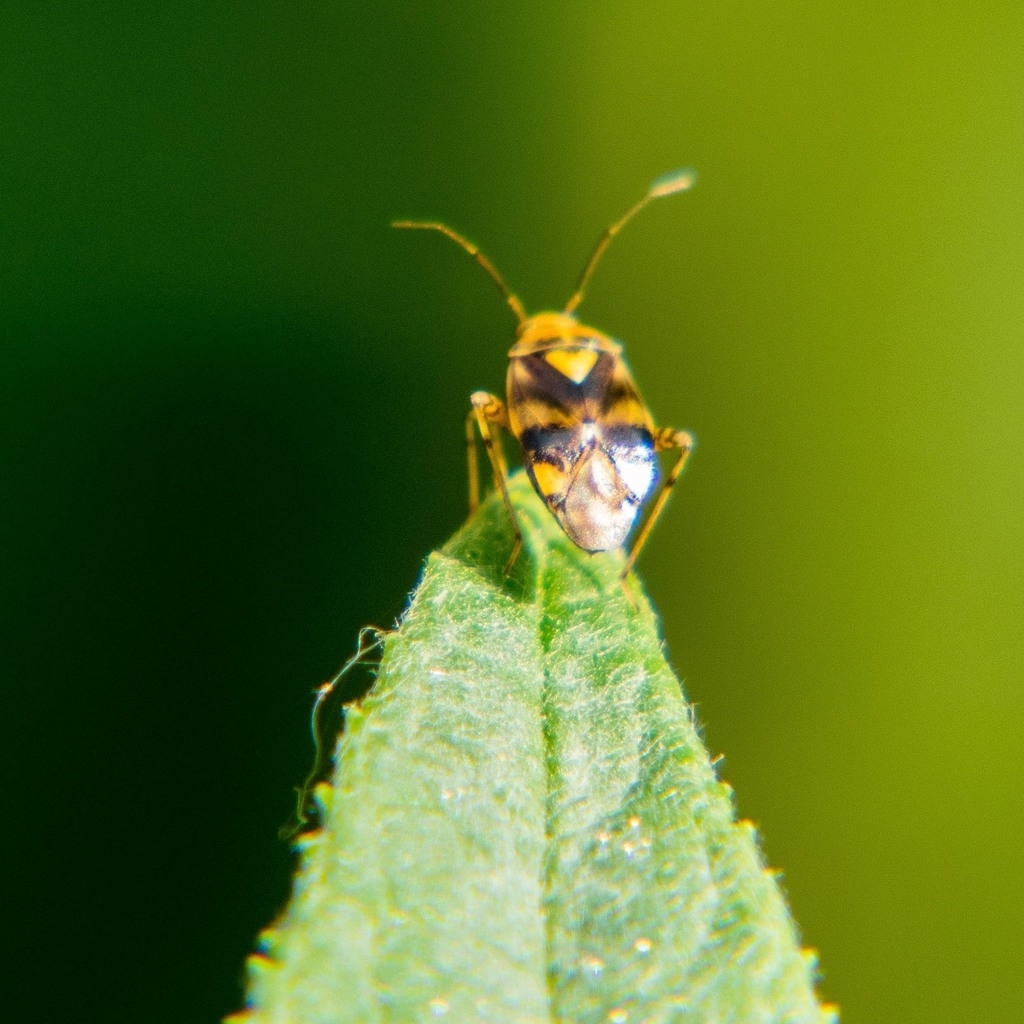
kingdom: Animalia
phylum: Arthropoda
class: Insecta
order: Hemiptera
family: Miridae
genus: Liocoris
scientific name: Liocoris tripustulatus
